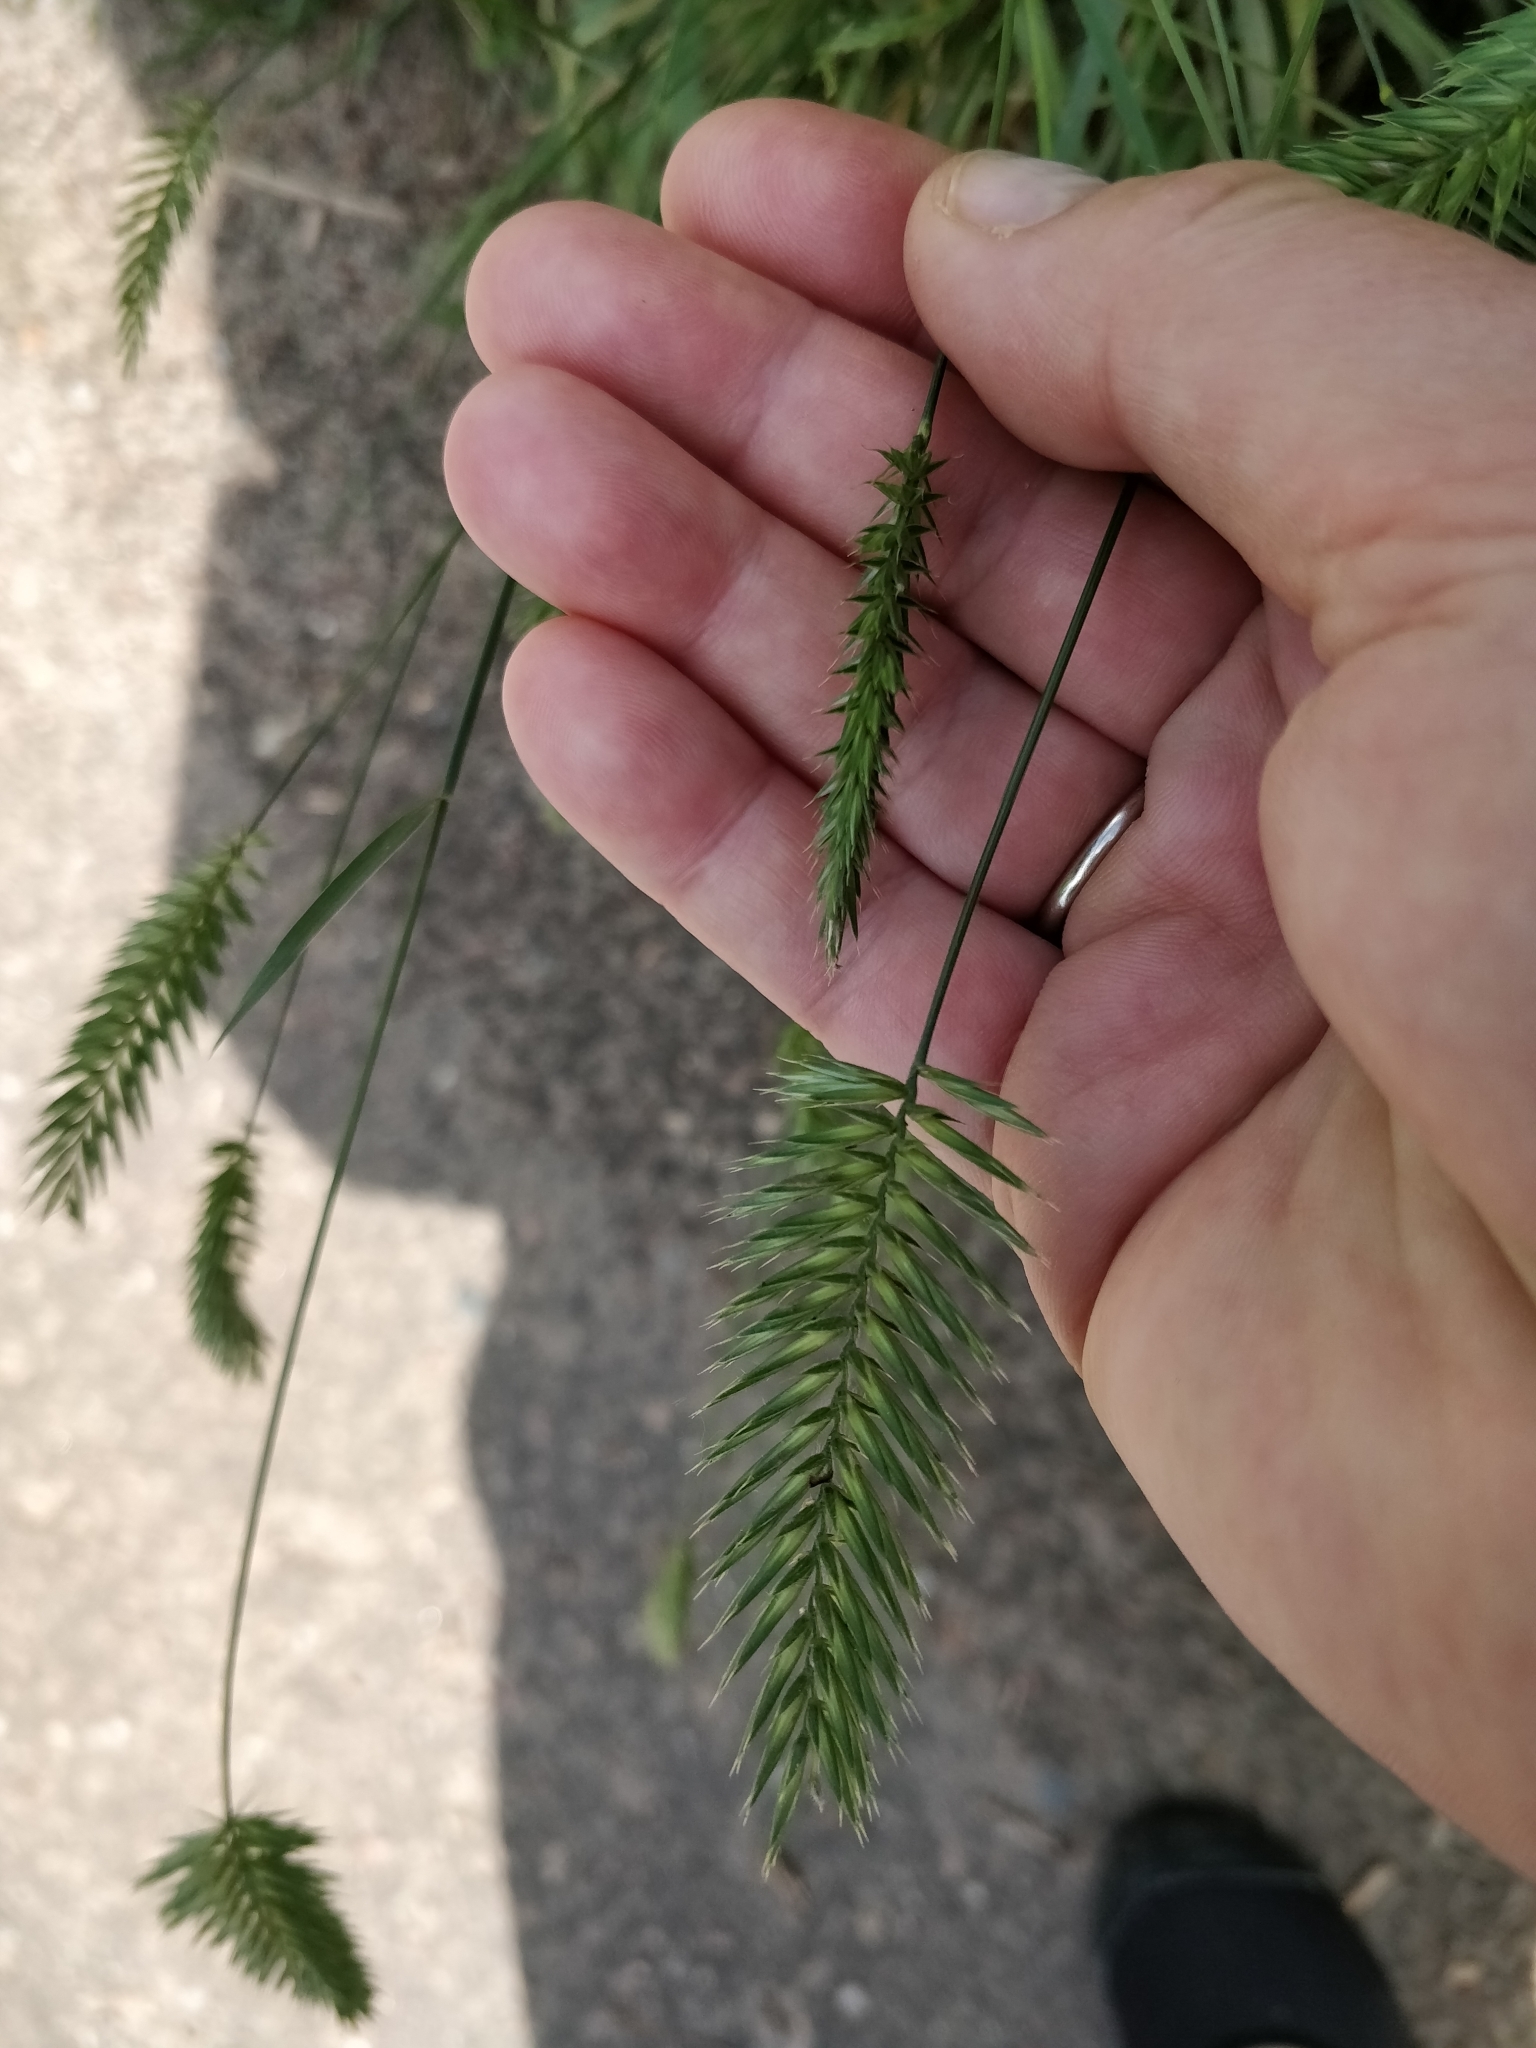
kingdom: Plantae
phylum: Tracheophyta
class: Liliopsida
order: Poales
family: Poaceae
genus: Agropyron
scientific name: Agropyron cristatum
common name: Crested wheatgrass
